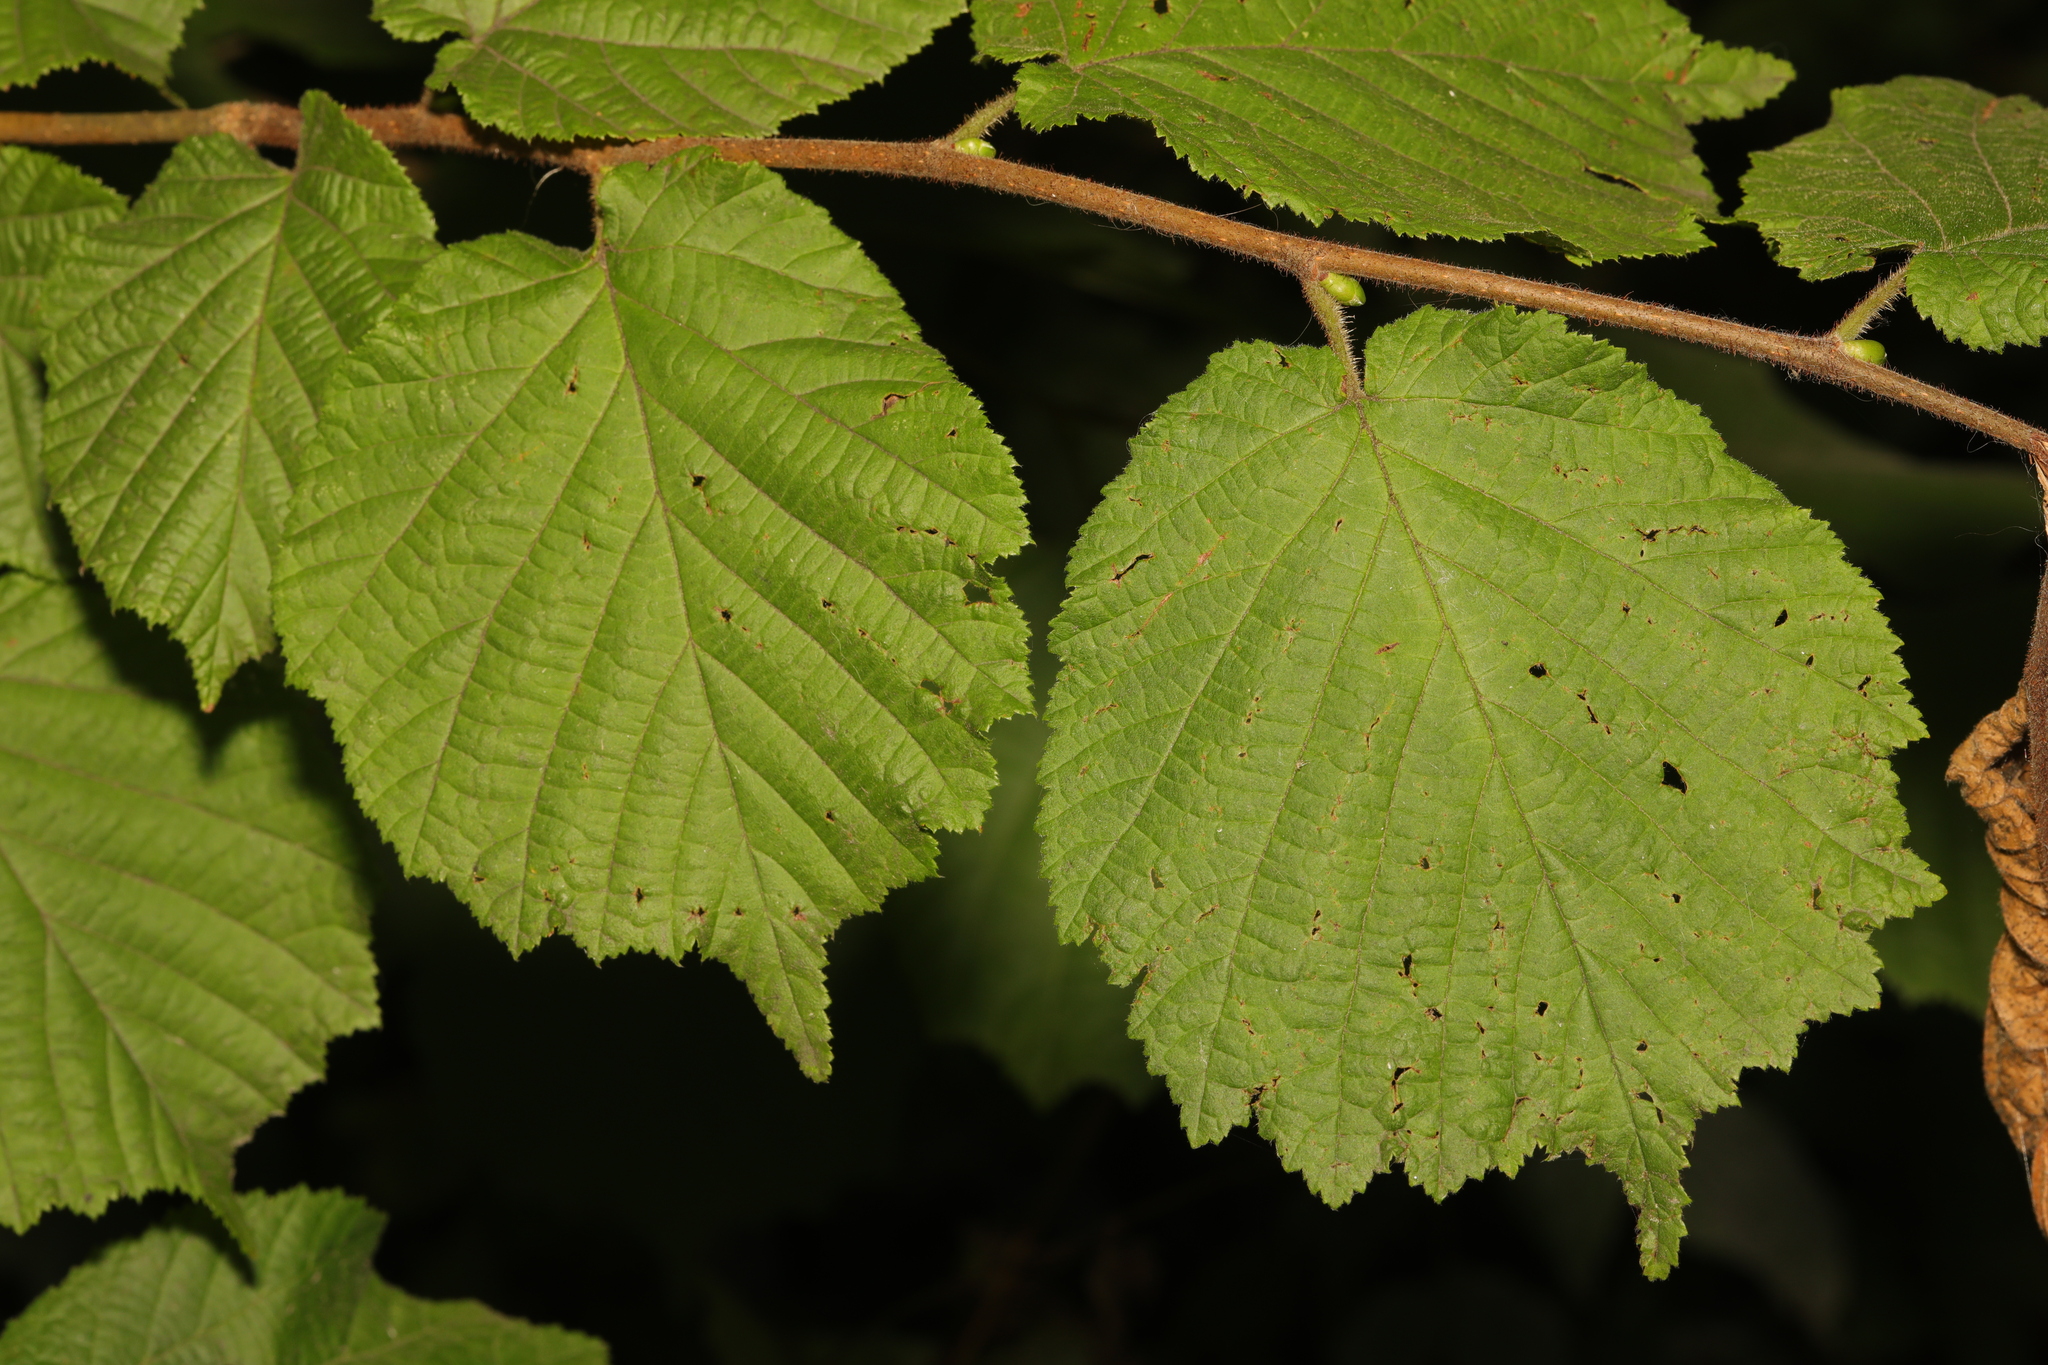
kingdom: Plantae
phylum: Tracheophyta
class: Magnoliopsida
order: Fagales
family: Betulaceae
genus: Corylus
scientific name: Corylus avellana
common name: European hazel
